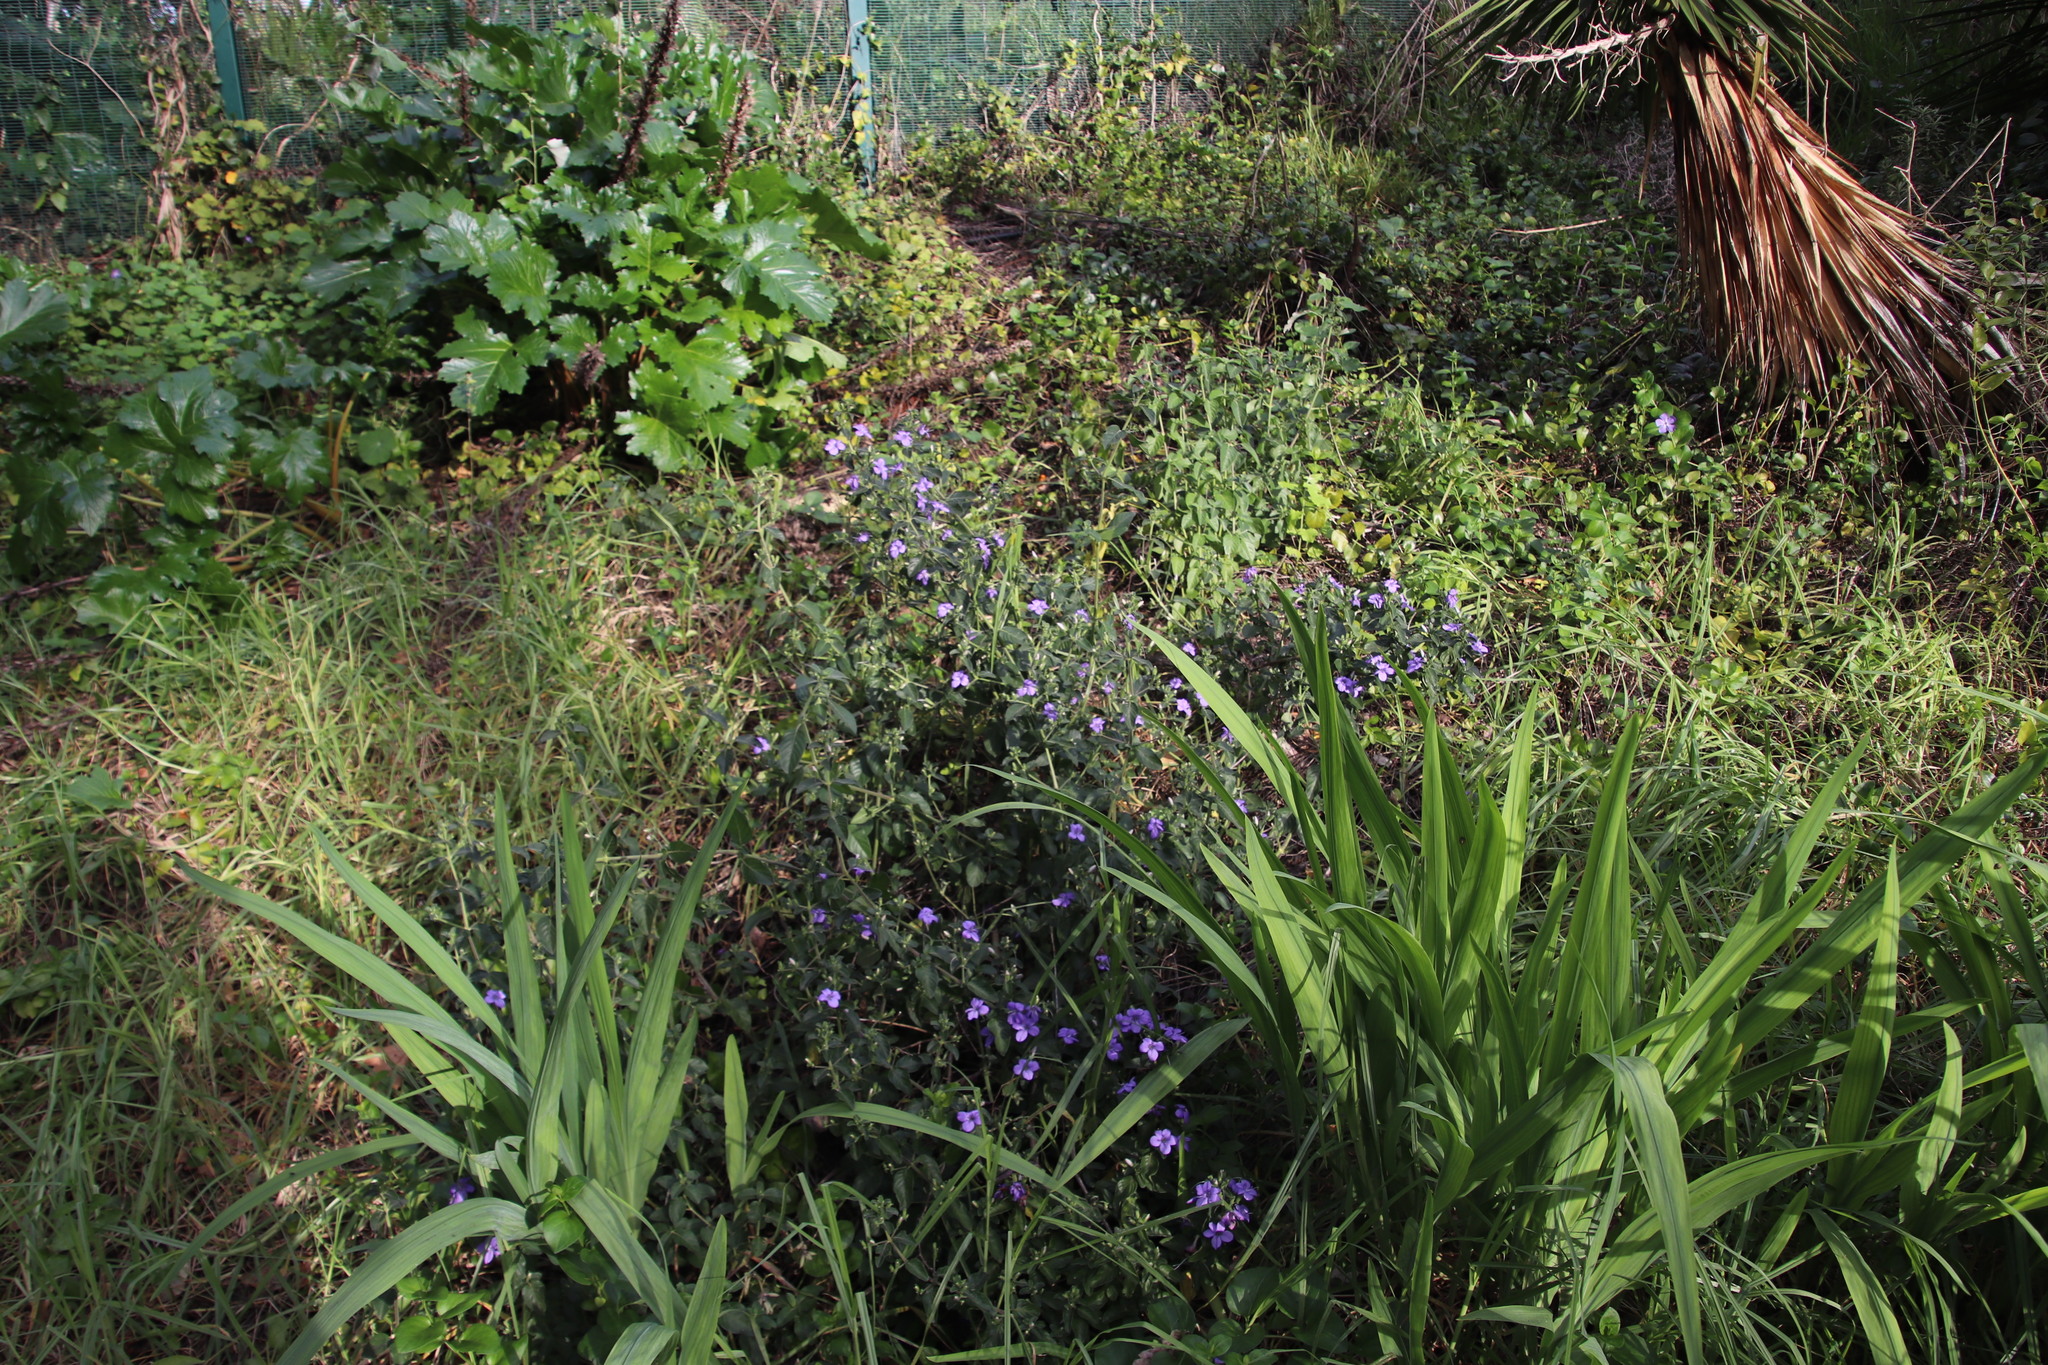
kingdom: Plantae
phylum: Tracheophyta
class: Magnoliopsida
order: Lamiales
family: Acanthaceae
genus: Barleria
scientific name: Barleria obtusa
